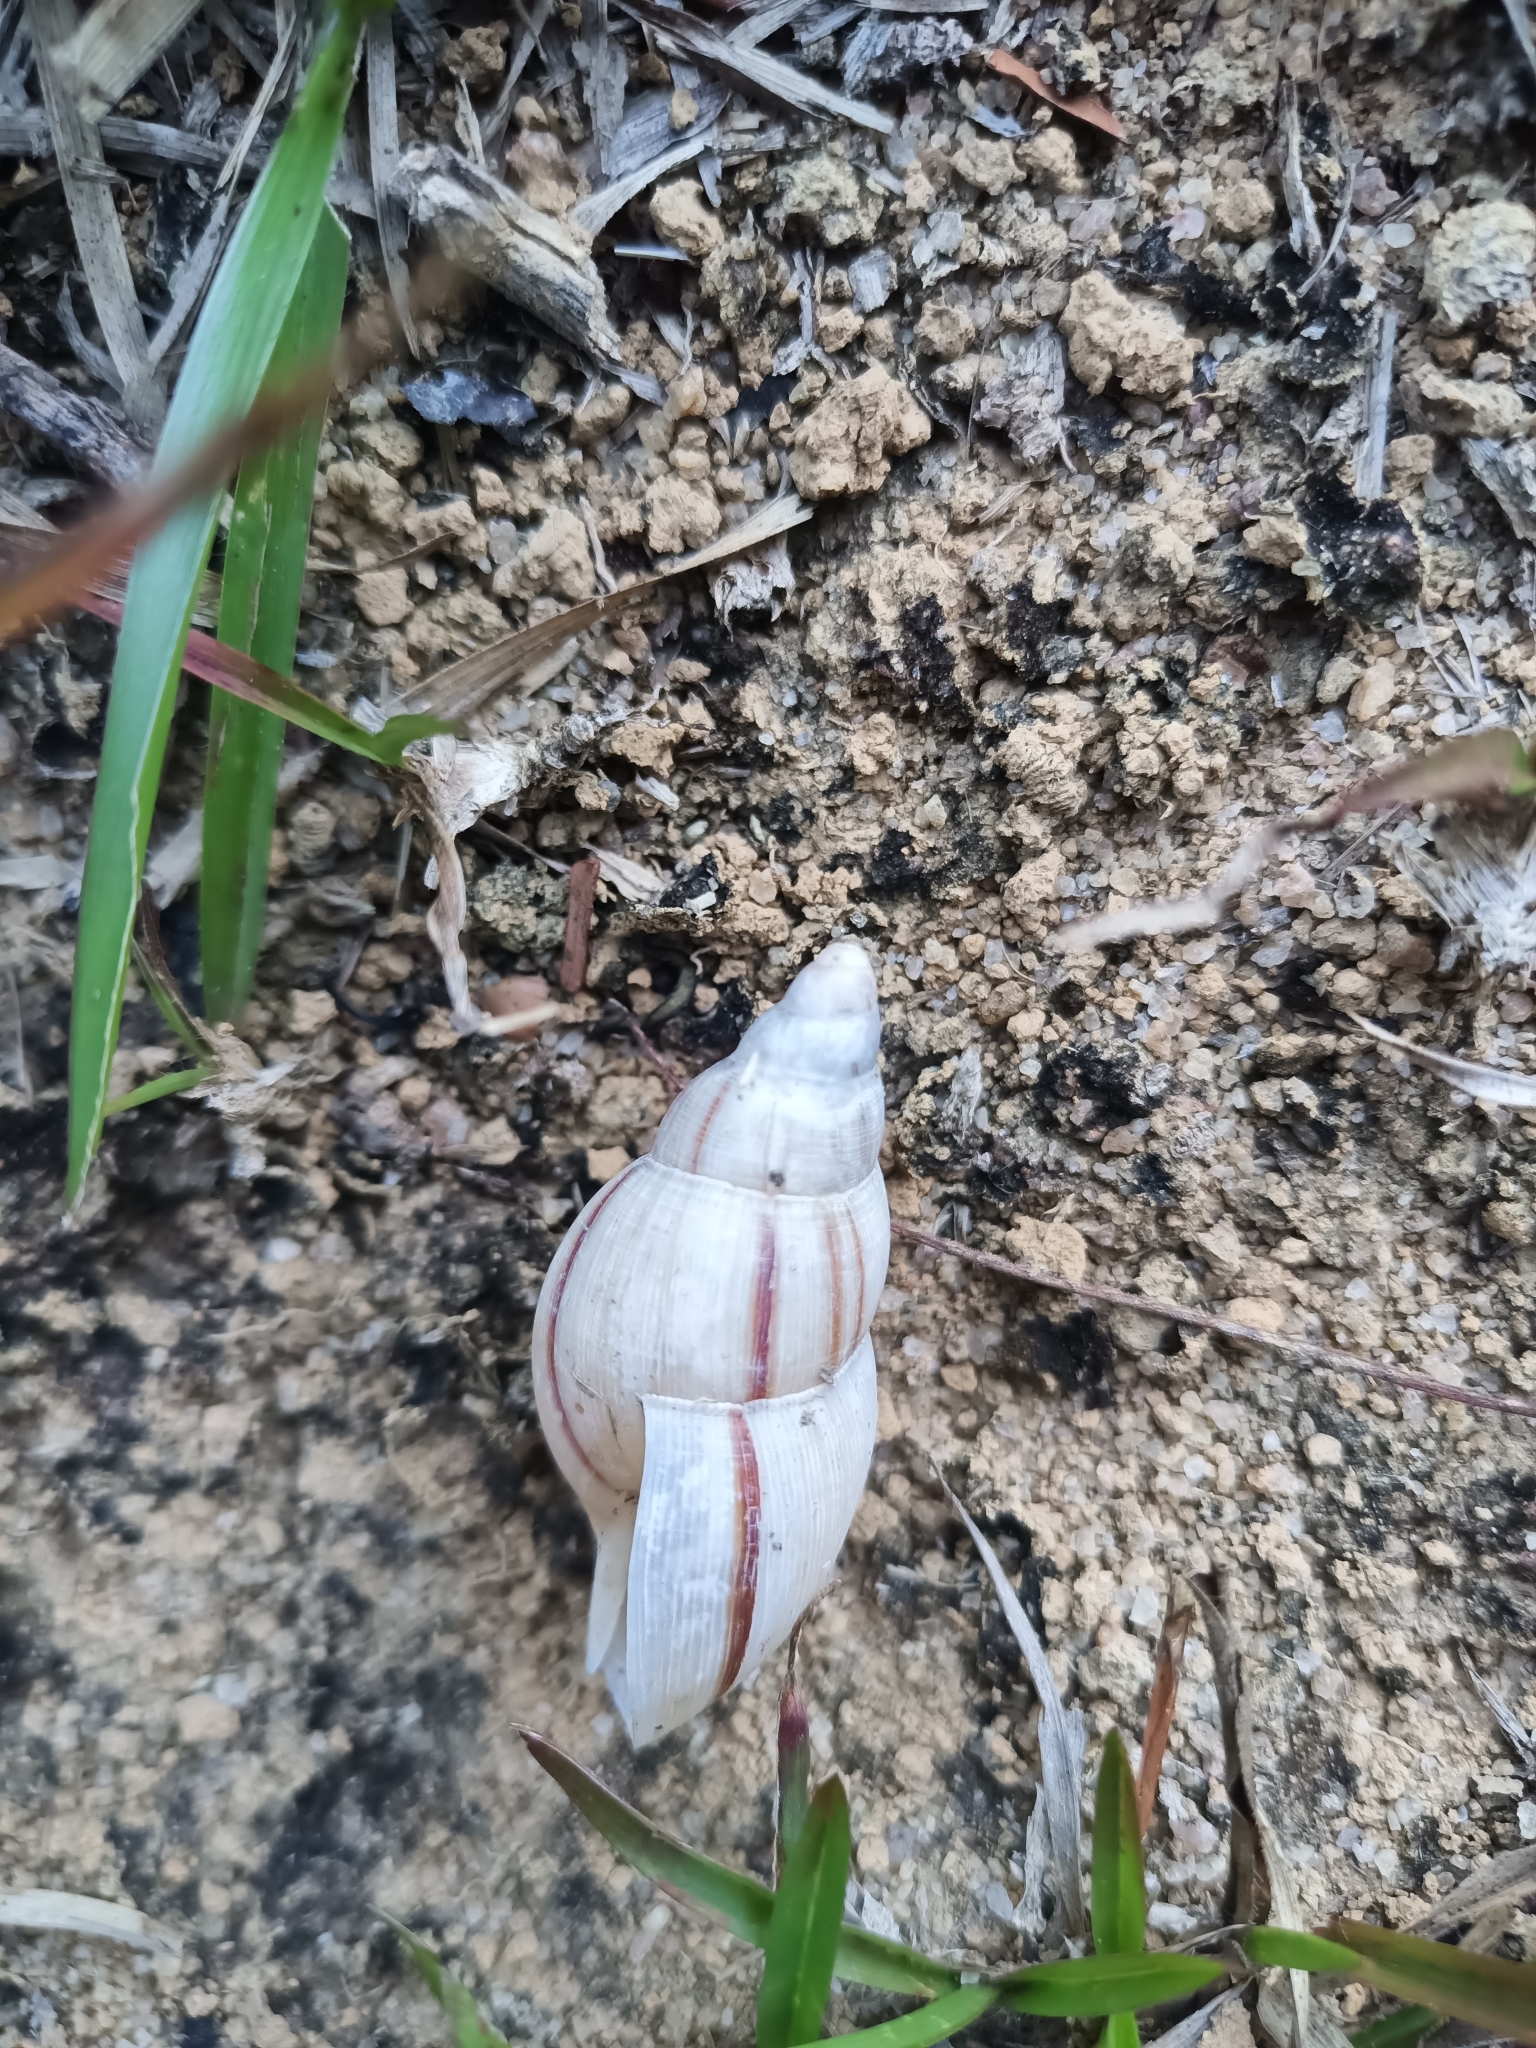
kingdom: Animalia
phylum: Mollusca
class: Gastropoda
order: Stylommatophora
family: Spiraxidae
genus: Euglandina
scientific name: Euglandina striata
